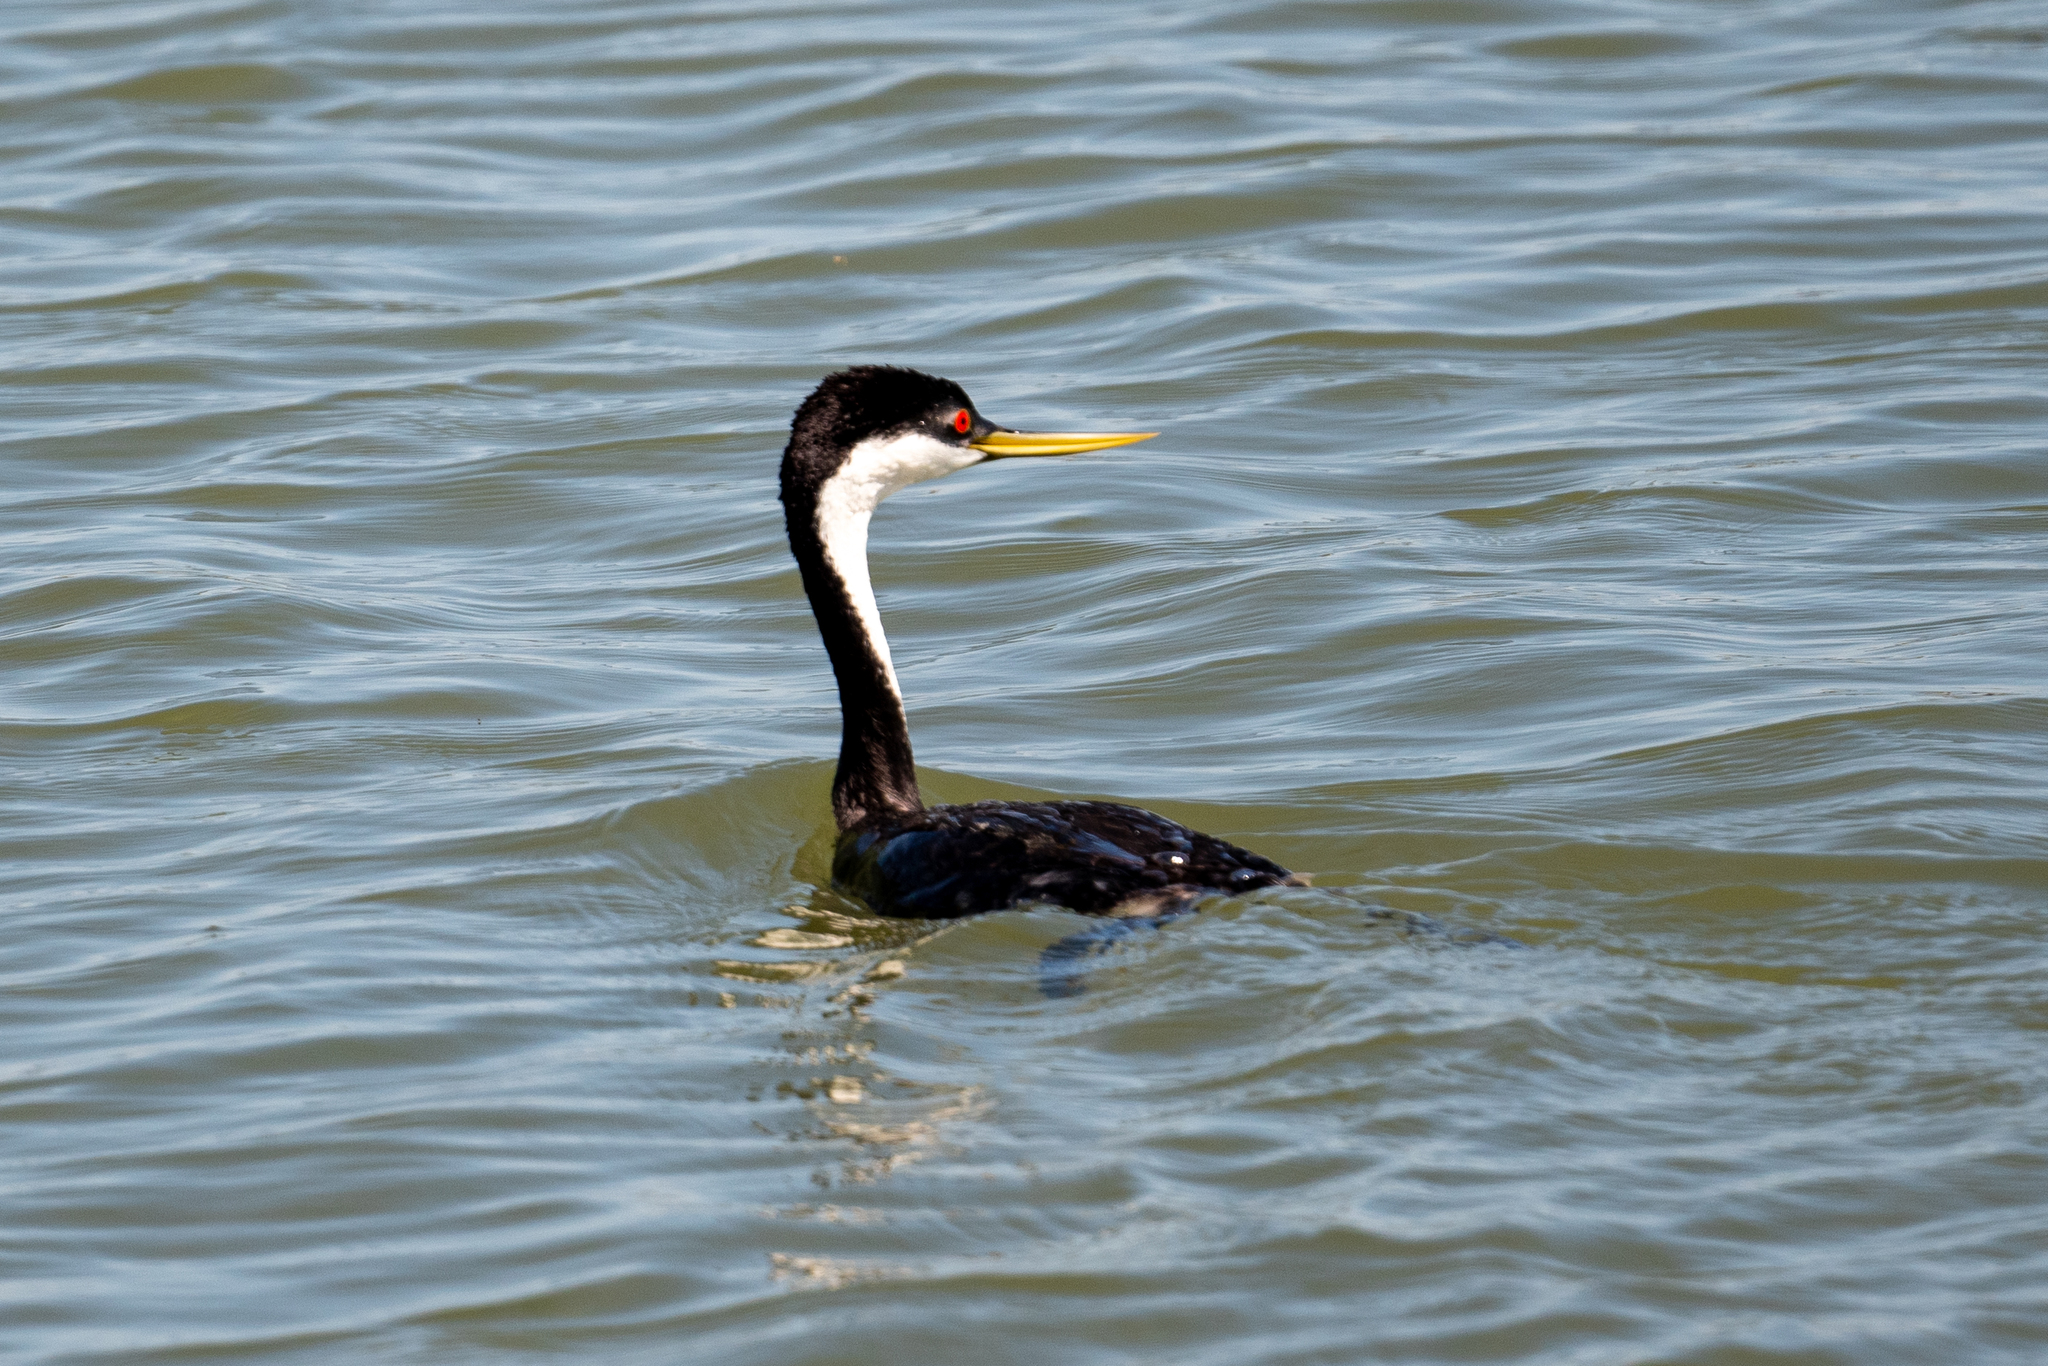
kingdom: Animalia
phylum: Chordata
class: Aves
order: Podicipediformes
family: Podicipedidae
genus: Aechmophorus
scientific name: Aechmophorus occidentalis
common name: Western grebe
